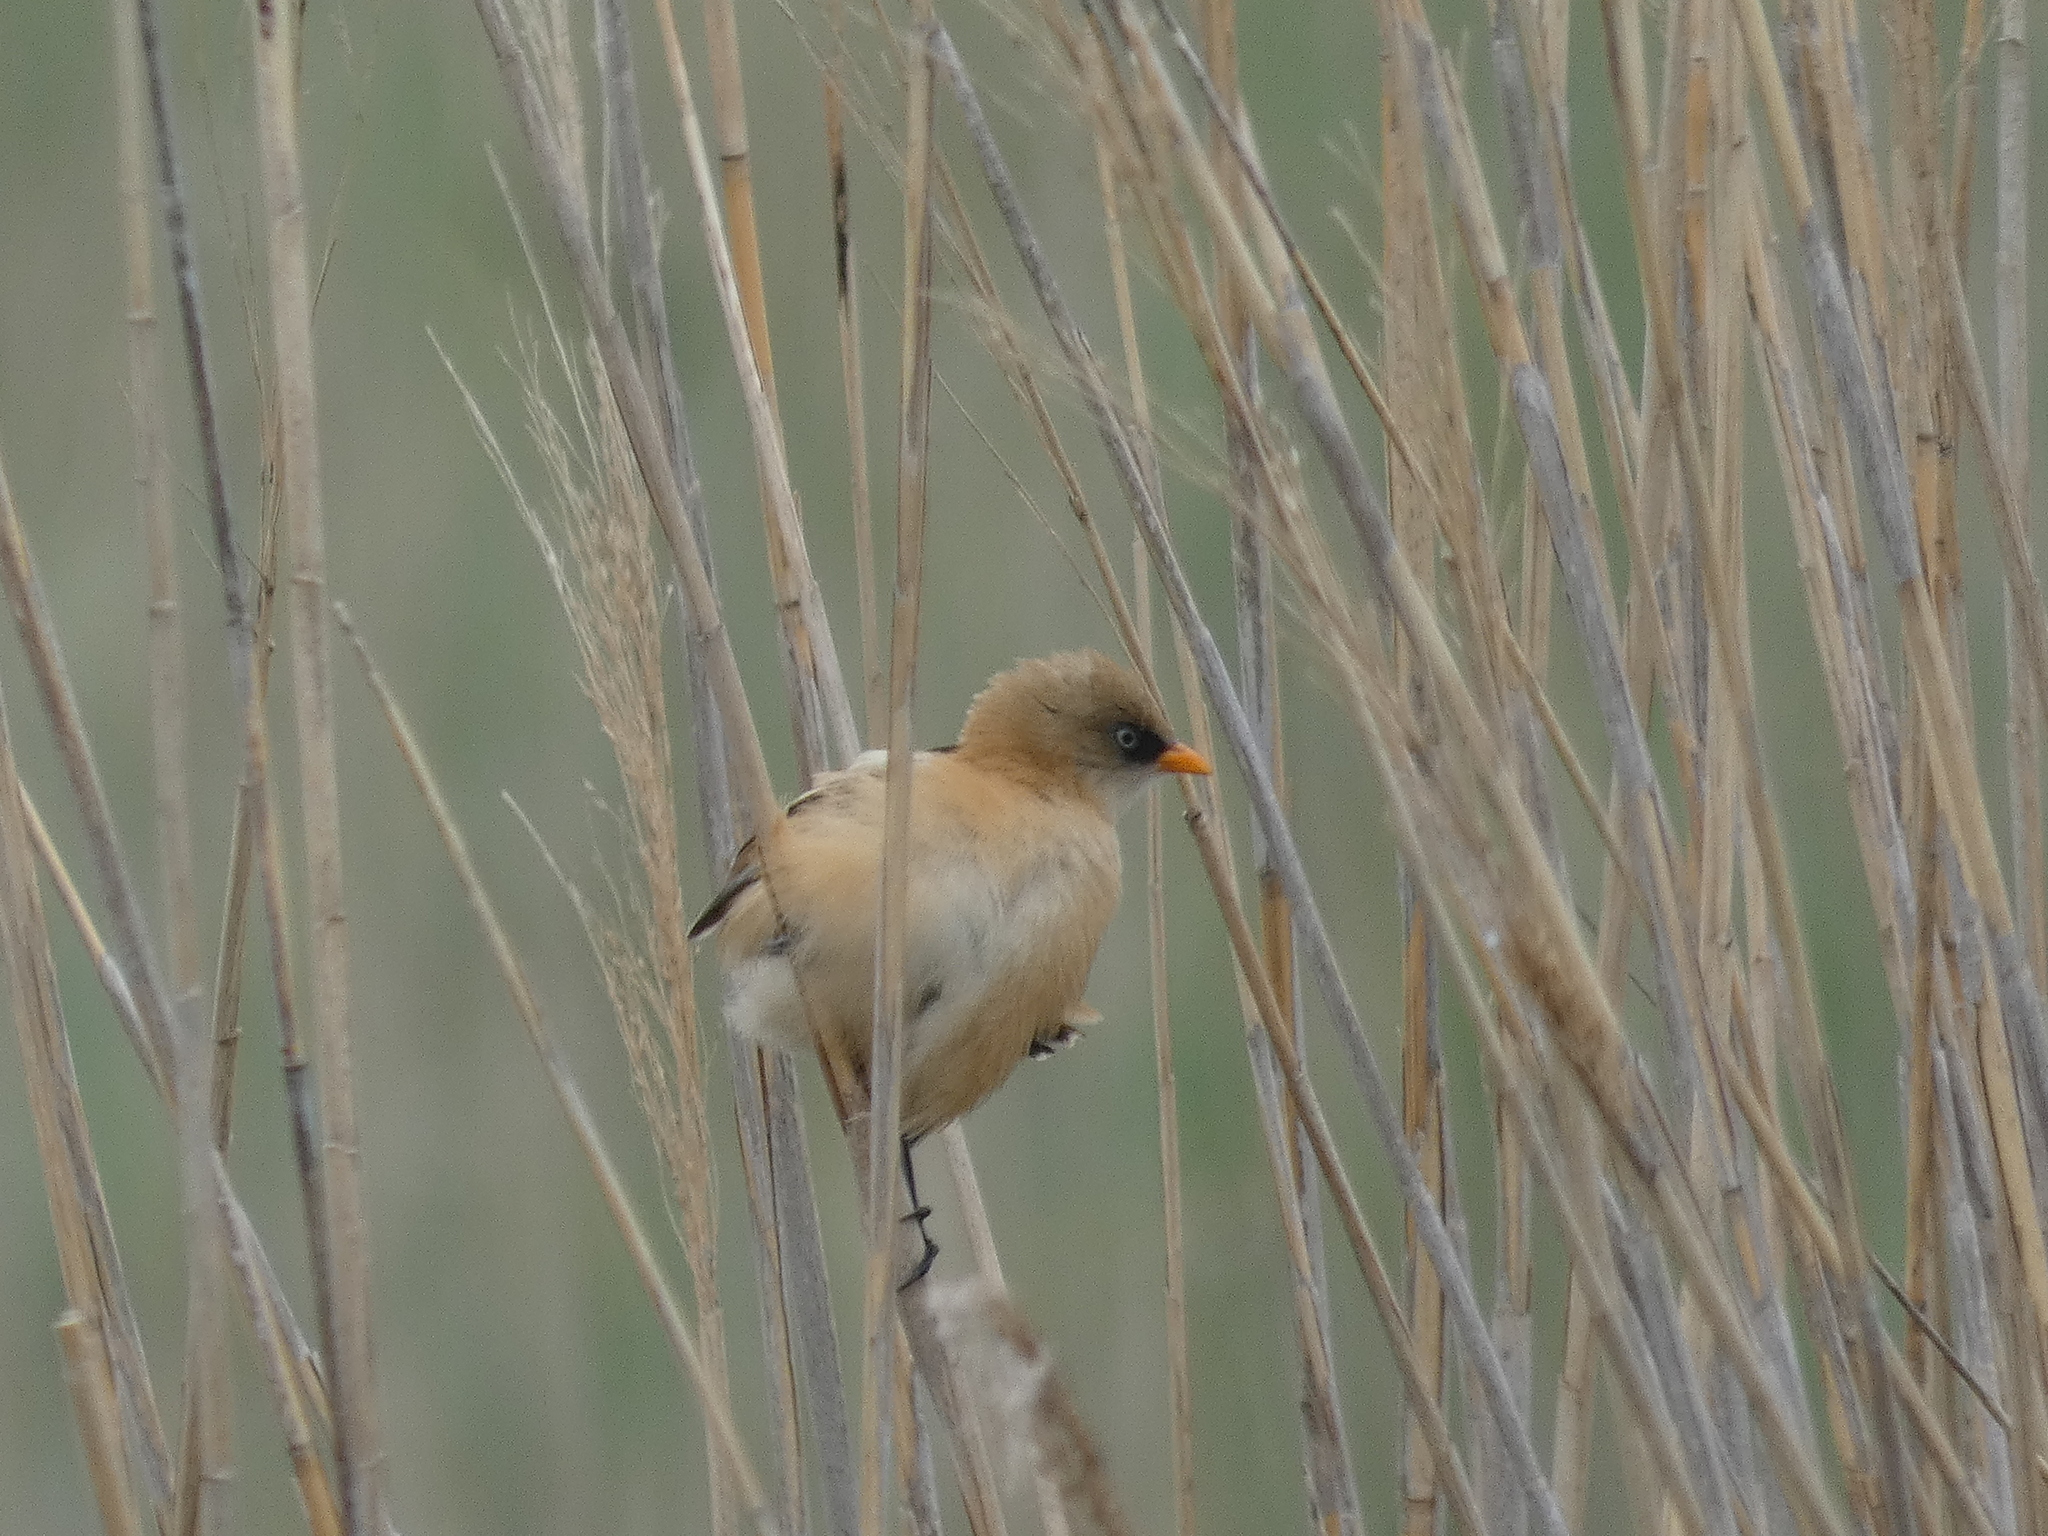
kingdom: Animalia
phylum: Chordata
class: Aves
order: Passeriformes
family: Panuridae
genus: Panurus
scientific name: Panurus biarmicus
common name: Bearded reedling
